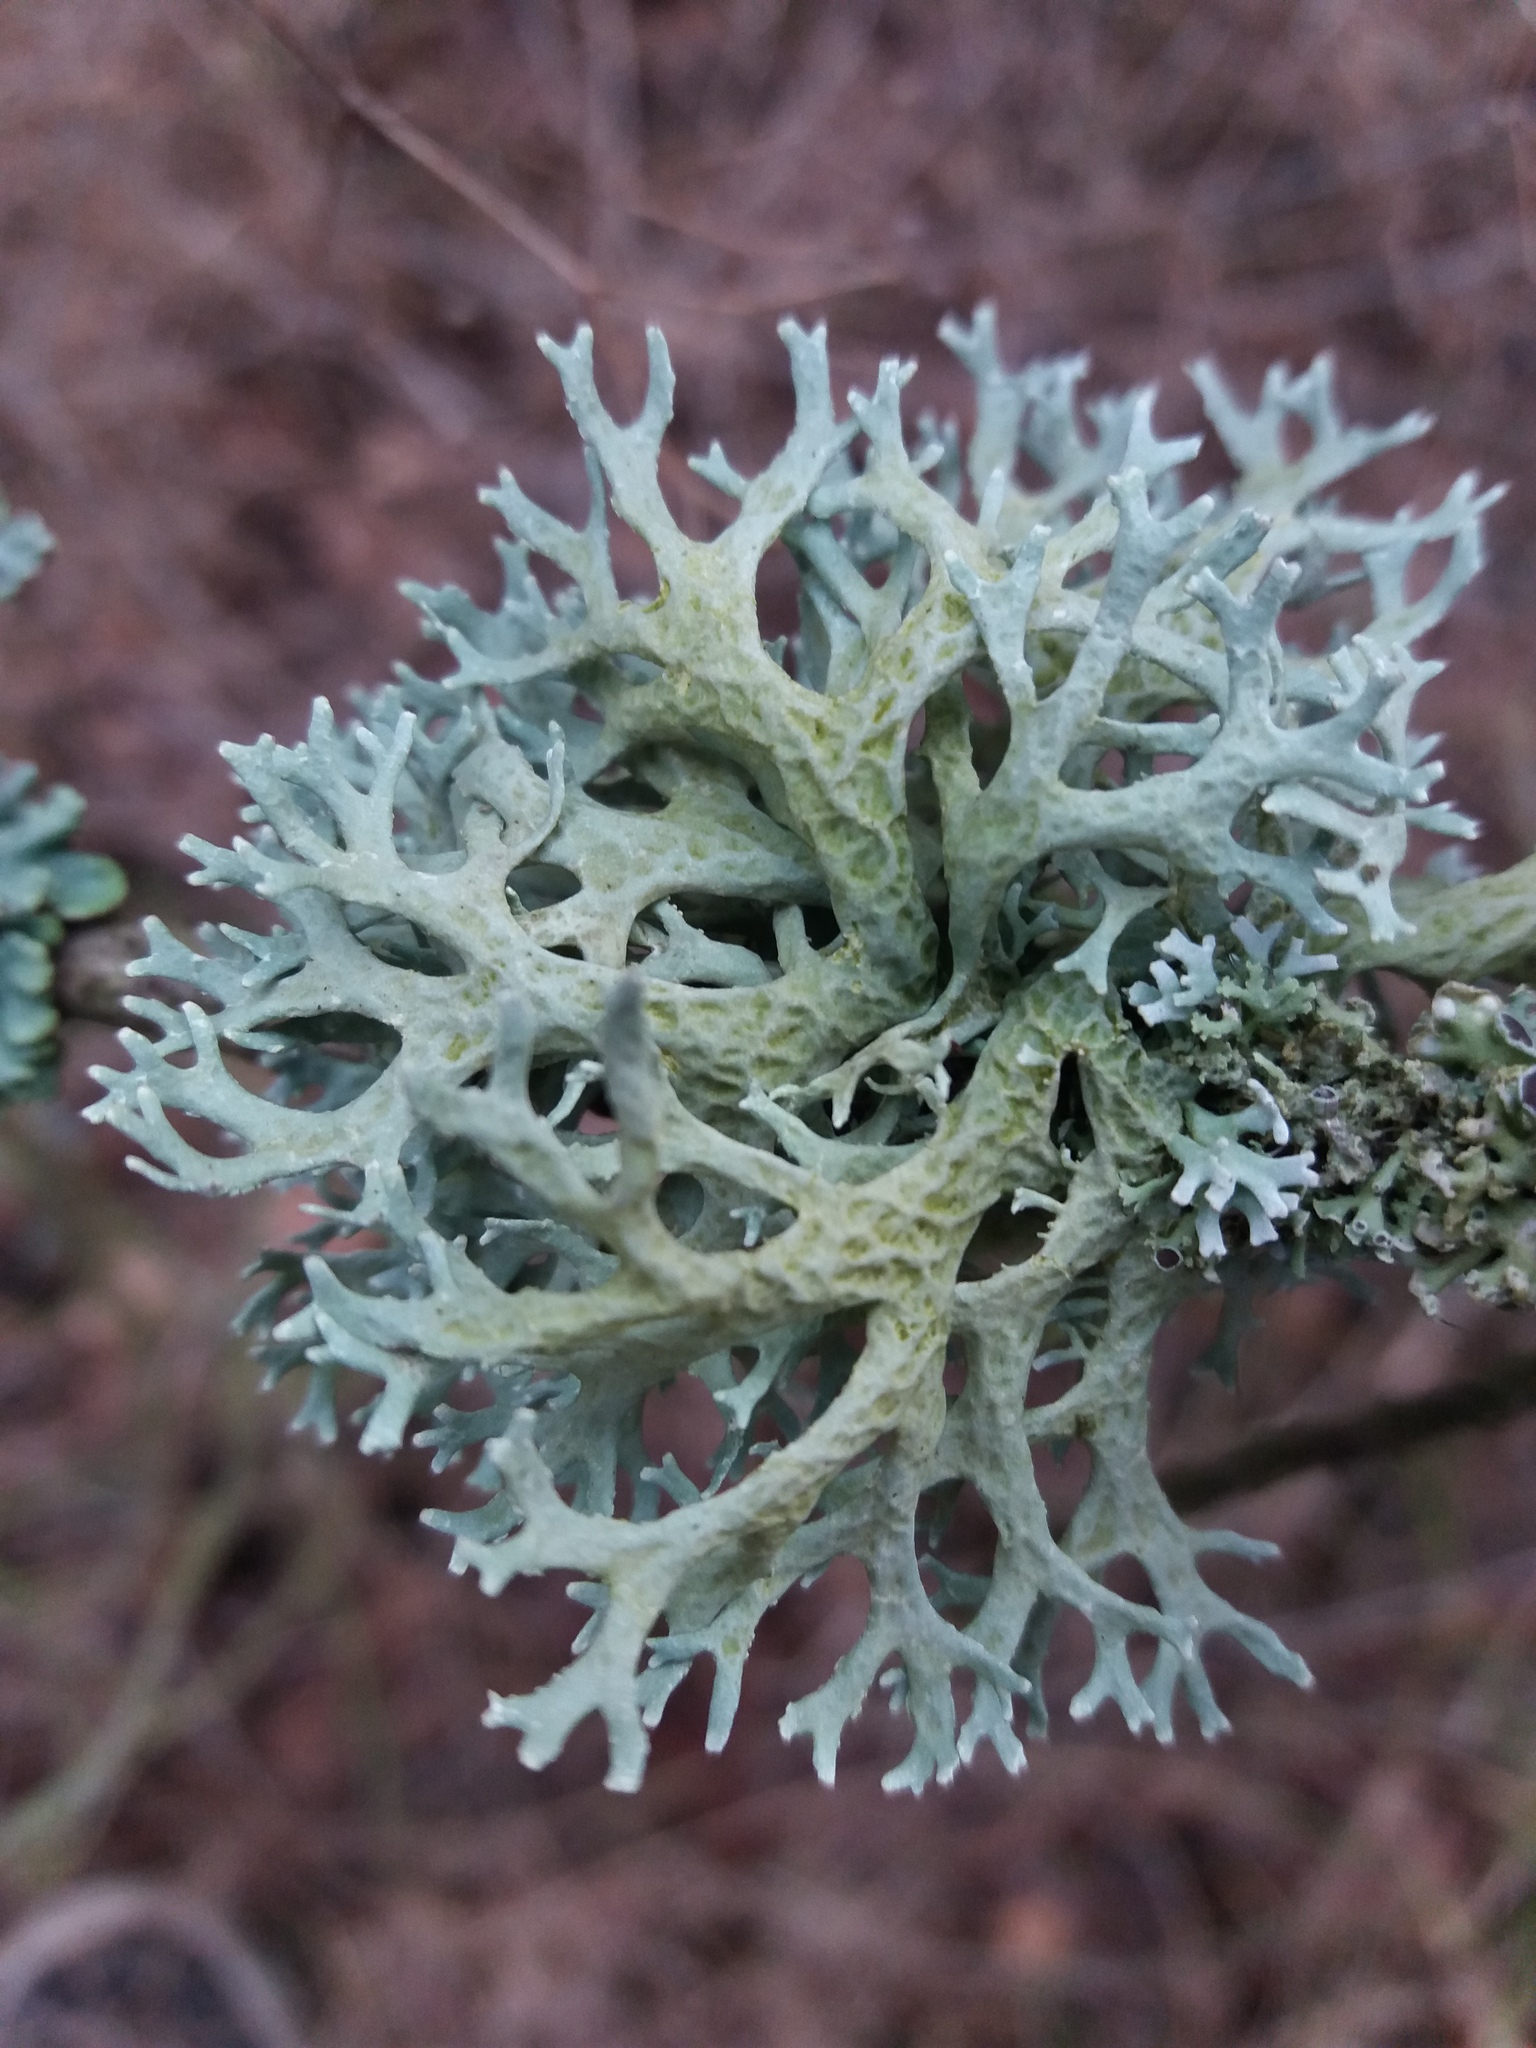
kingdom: Fungi
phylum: Ascomycota
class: Lecanoromycetes
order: Lecanorales
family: Parmeliaceae
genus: Evernia
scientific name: Evernia prunastri
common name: Oak moss
